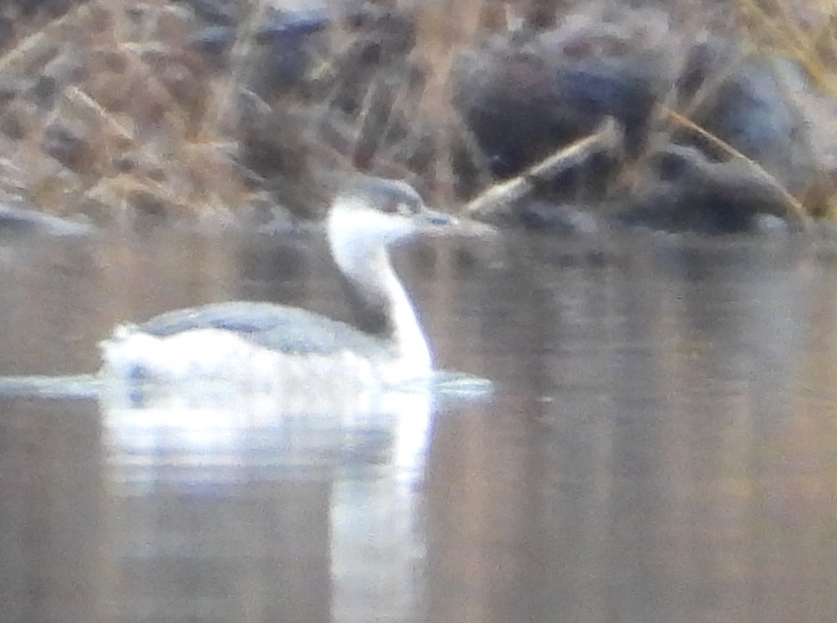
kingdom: Animalia
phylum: Chordata
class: Aves
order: Podicipediformes
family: Podicipedidae
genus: Podiceps
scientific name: Podiceps auritus
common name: Horned grebe
